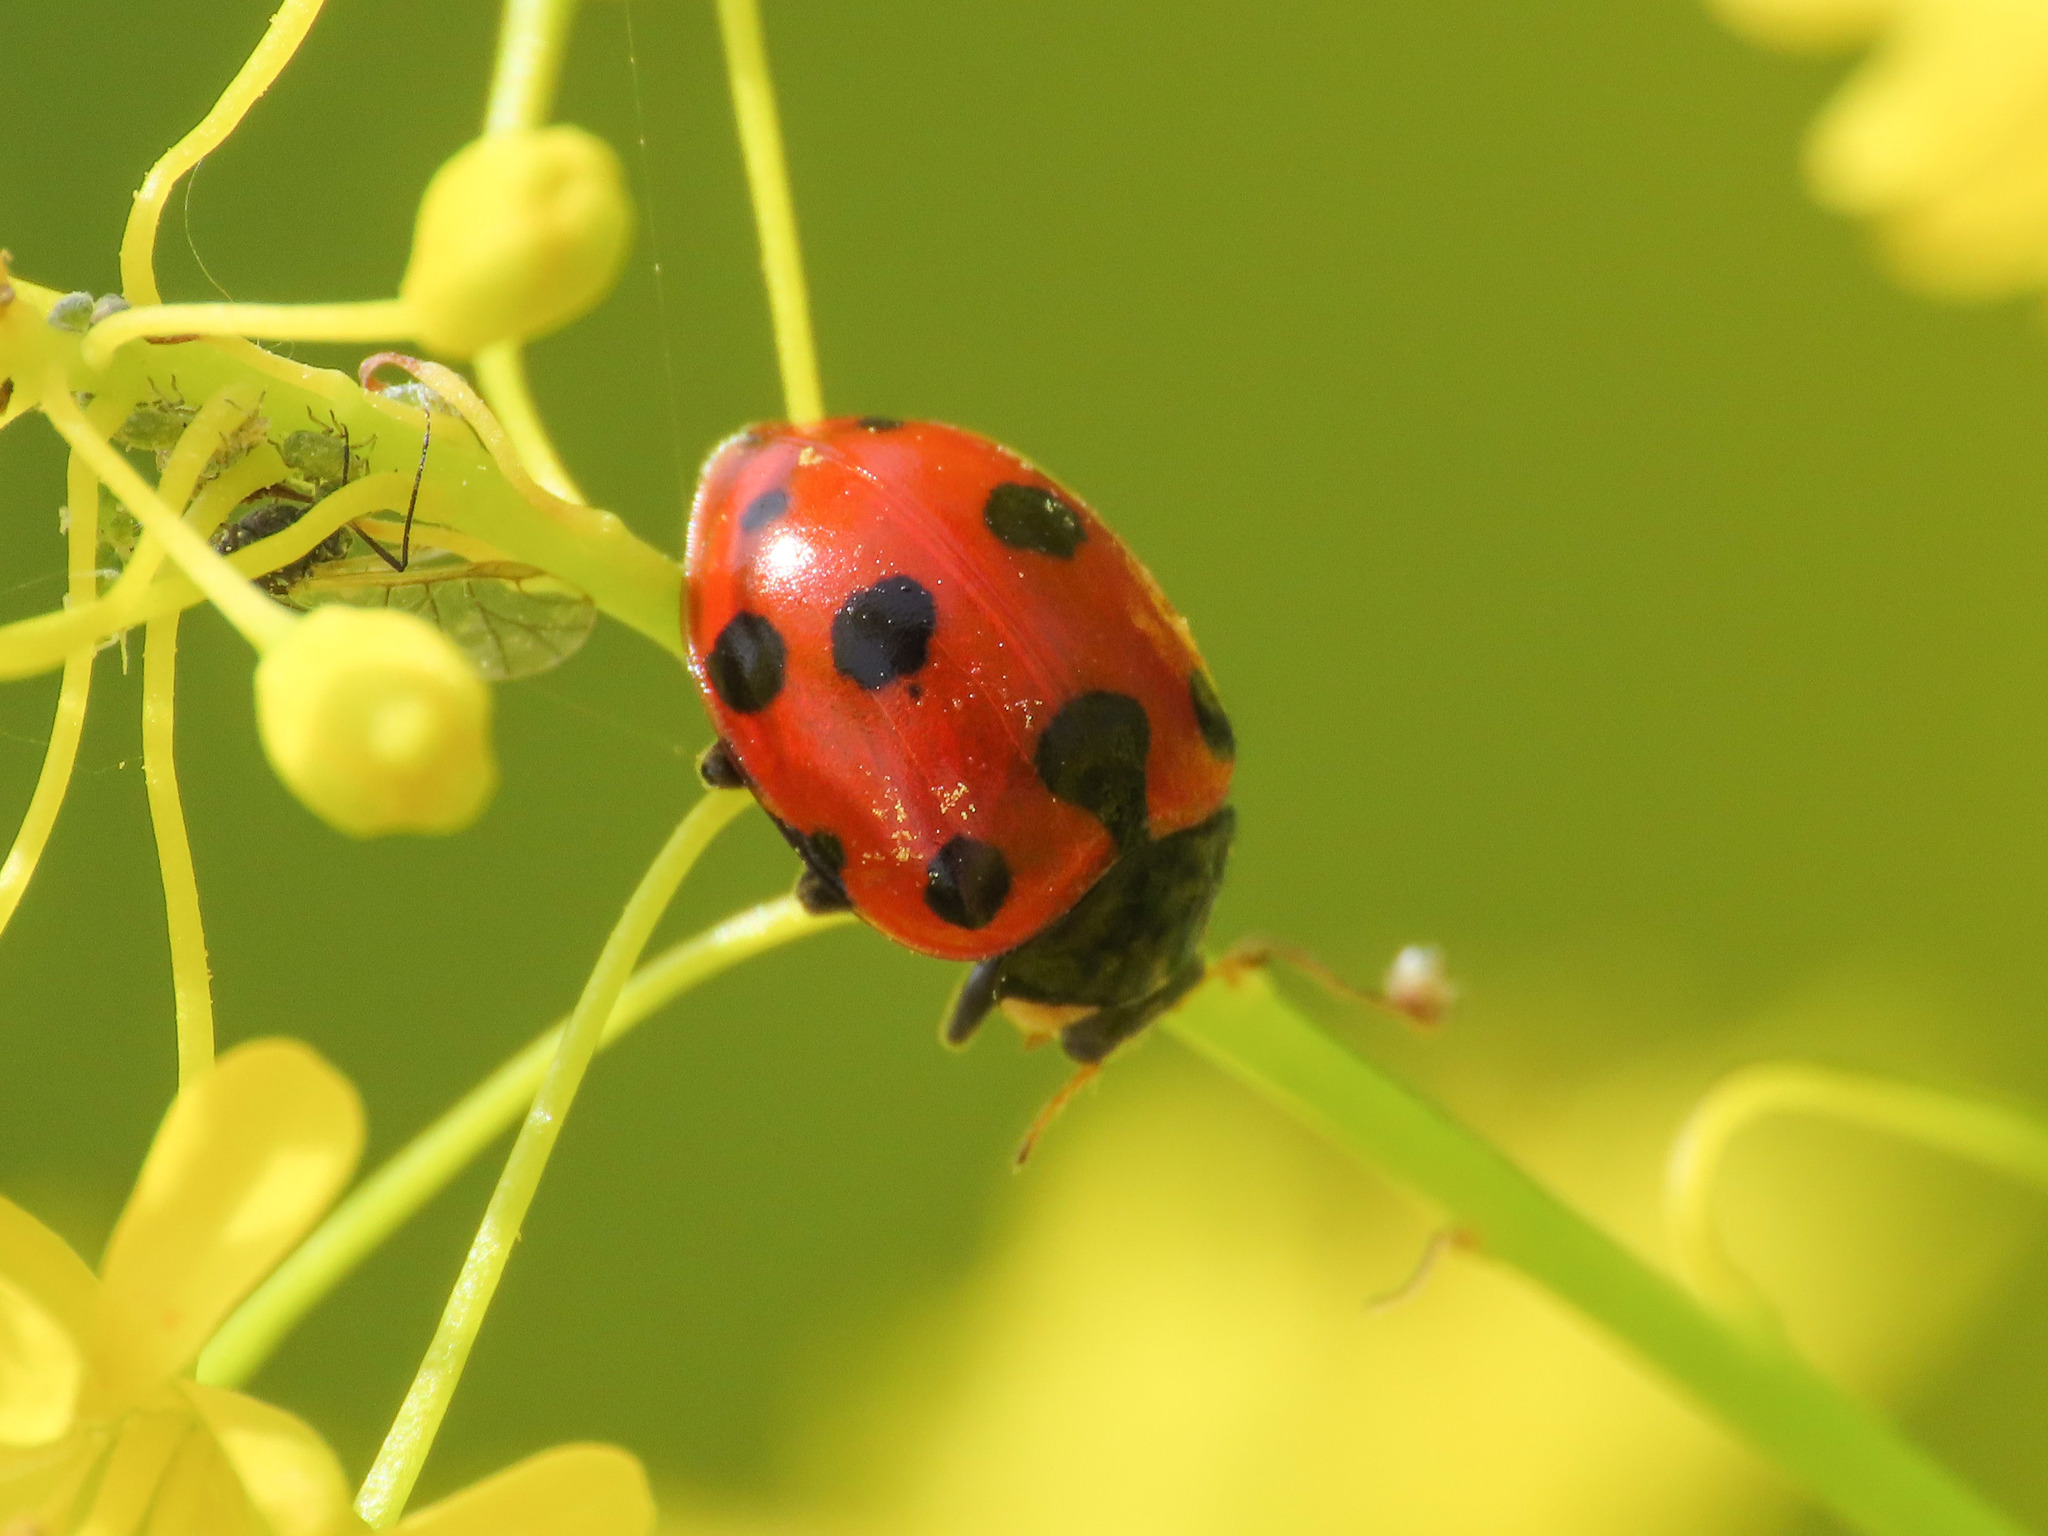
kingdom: Animalia
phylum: Arthropoda
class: Insecta
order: Coleoptera
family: Coccinellidae
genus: Ceratomegilla
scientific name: Ceratomegilla undecimnotata
